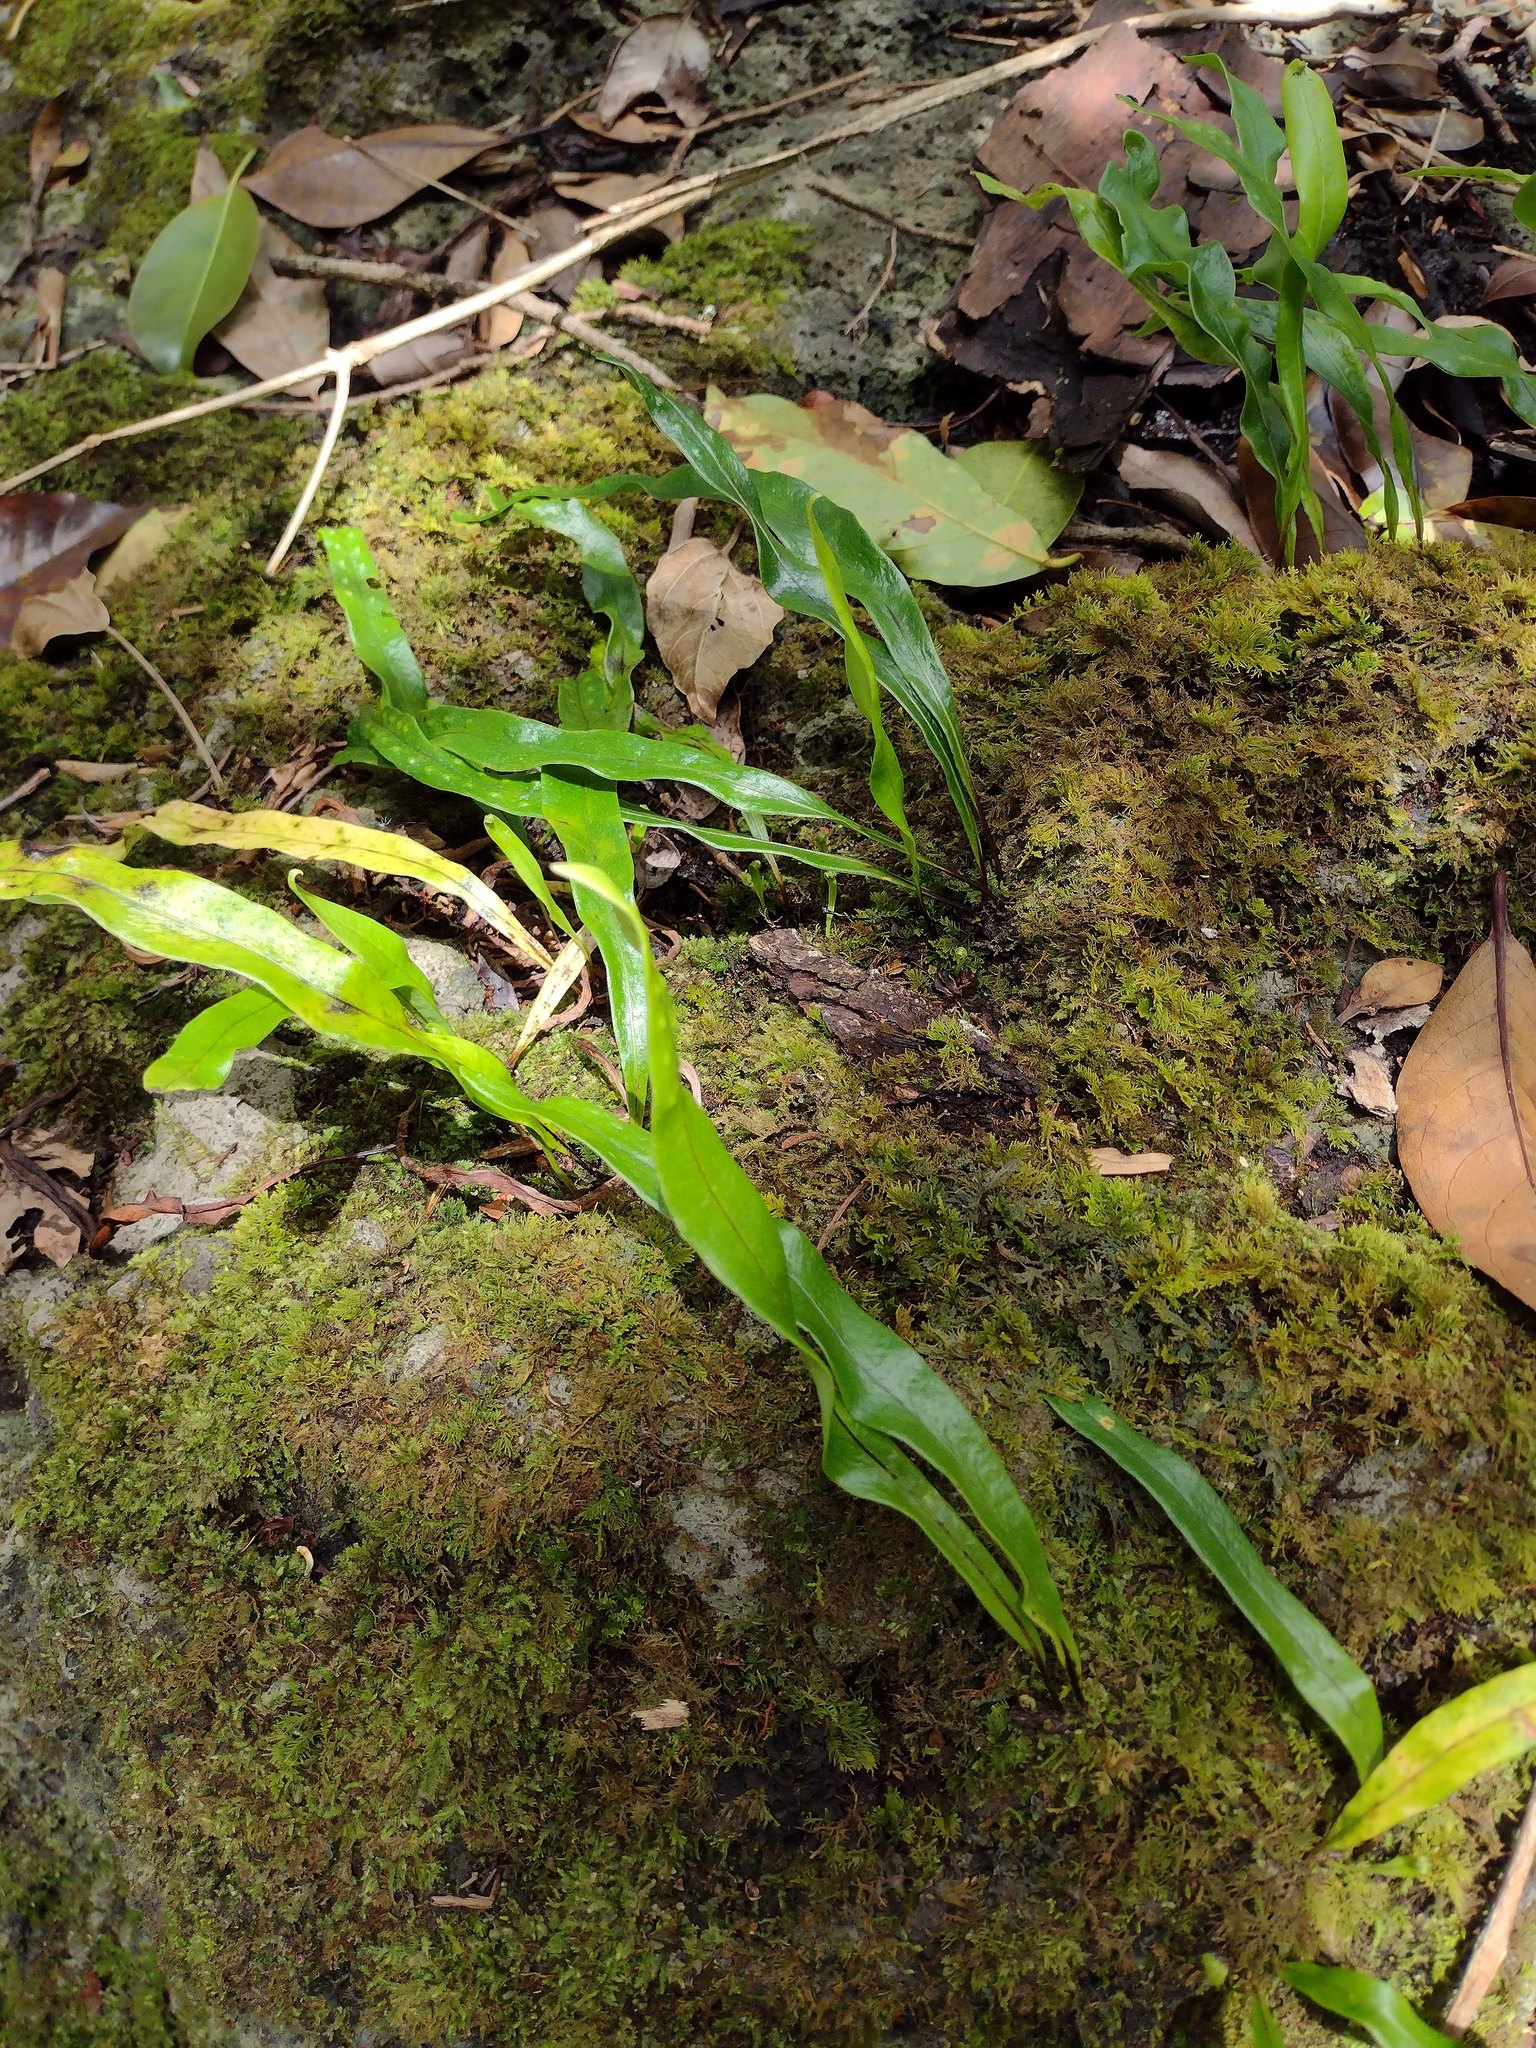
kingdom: Plantae
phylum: Tracheophyta
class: Polypodiopsida
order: Polypodiales
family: Polypodiaceae
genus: Lepisorus
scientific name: Lepisorus thunbergianus
